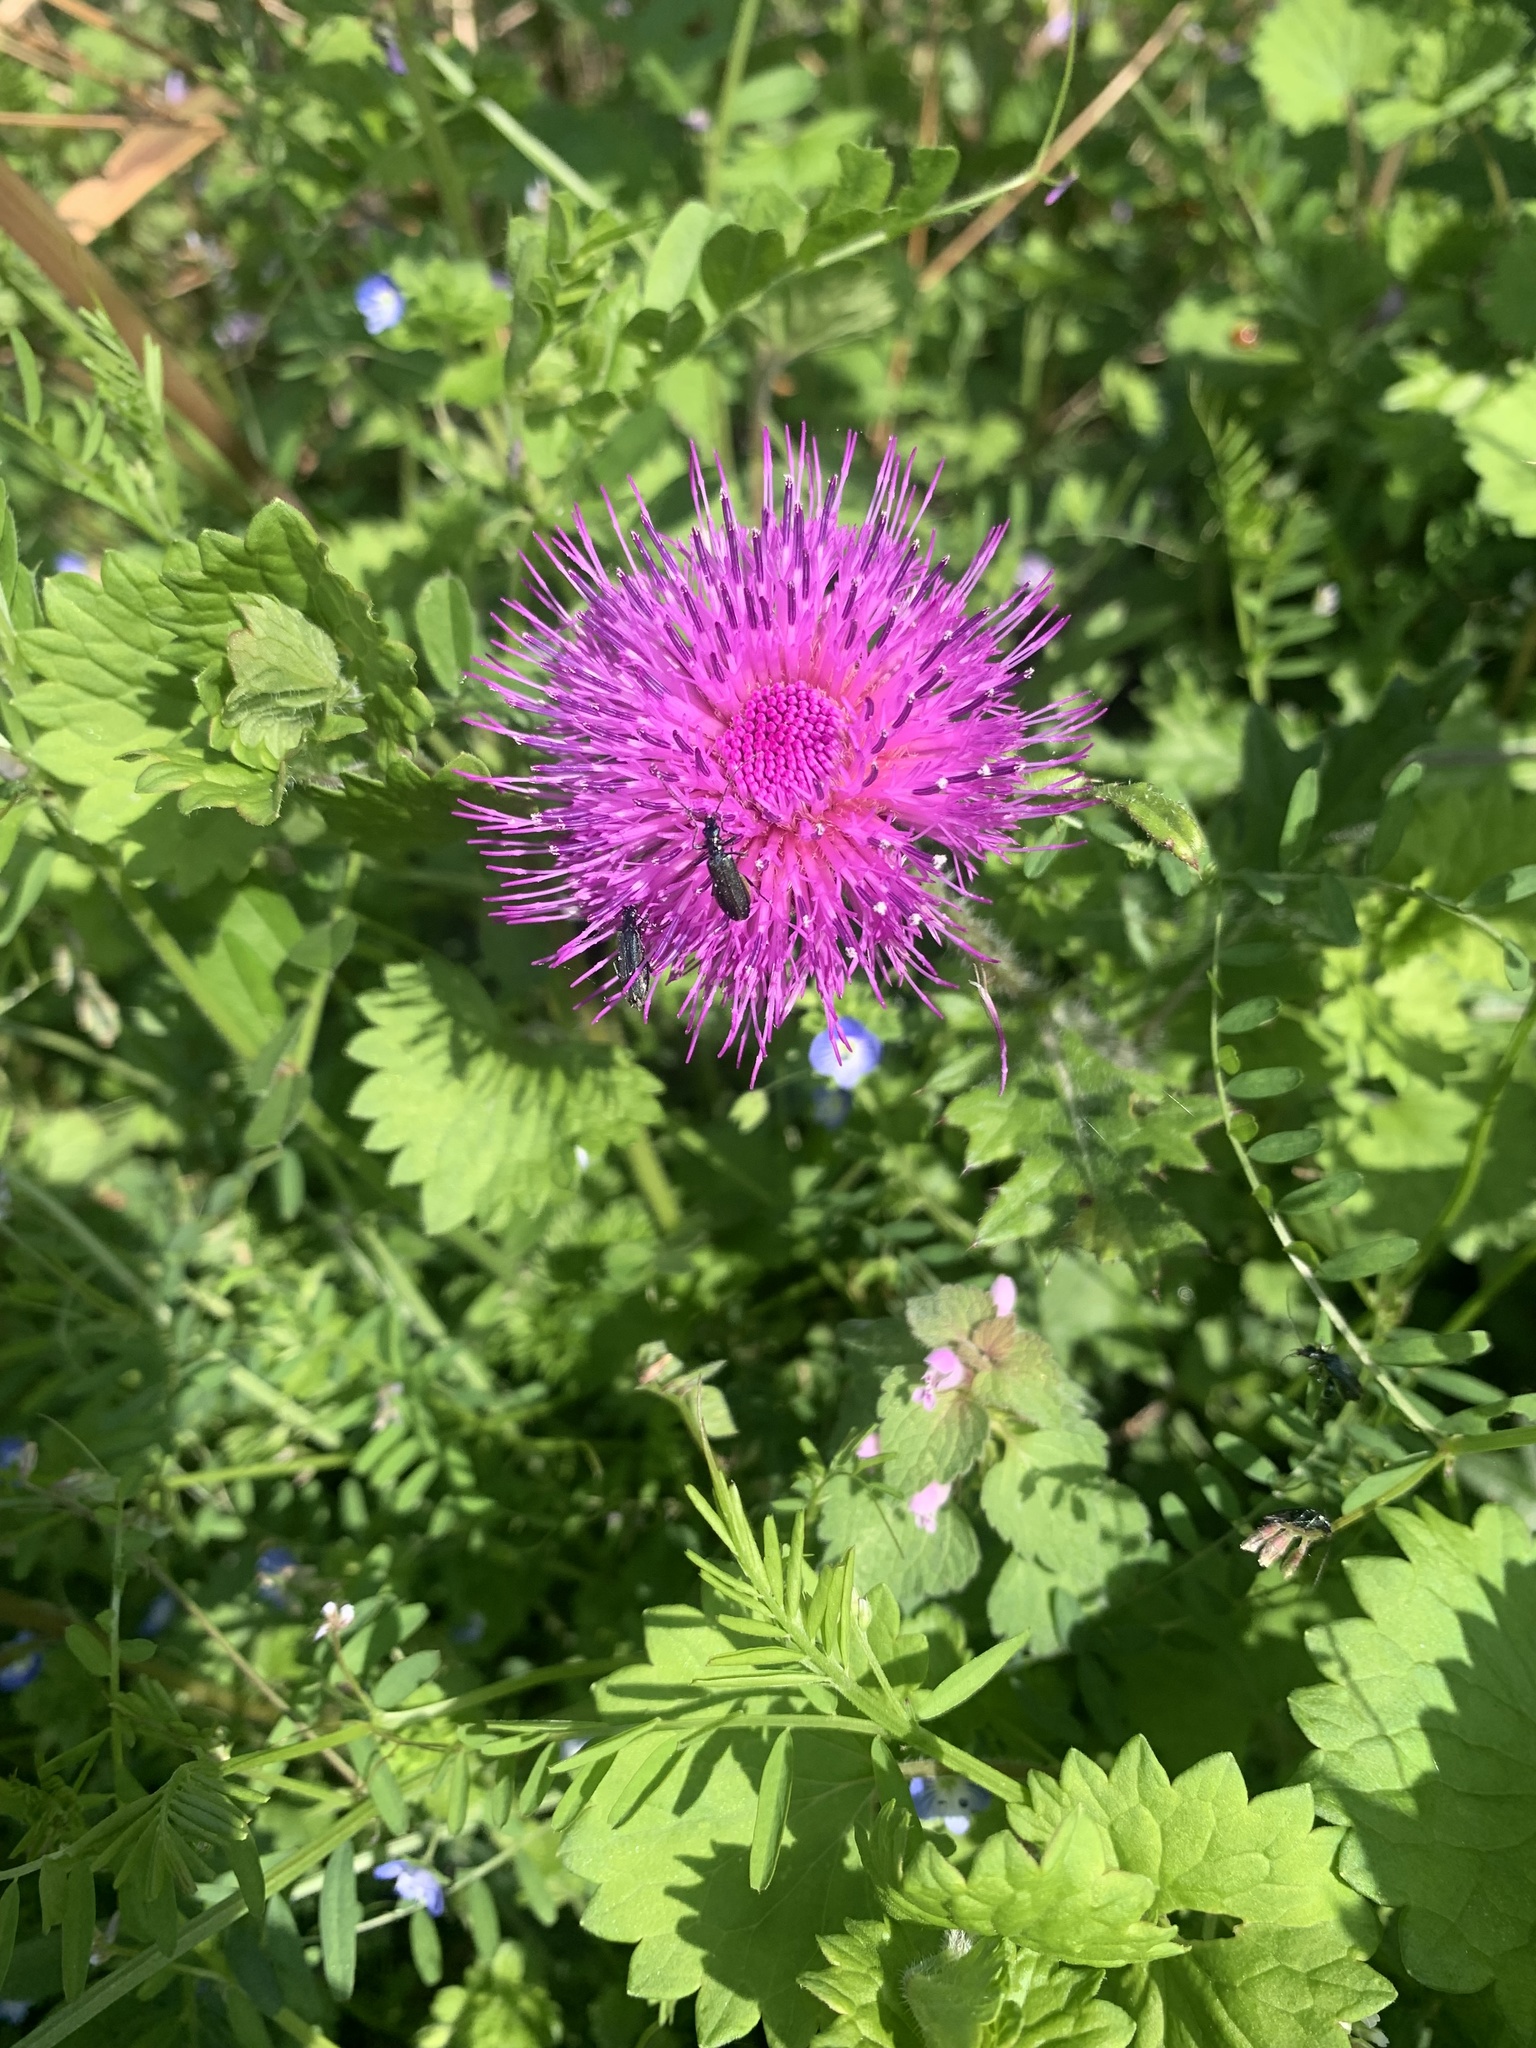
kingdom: Animalia
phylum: Arthropoda
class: Insecta
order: Coleoptera
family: Oedemeridae
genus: Oedemera
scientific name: Oedemera
